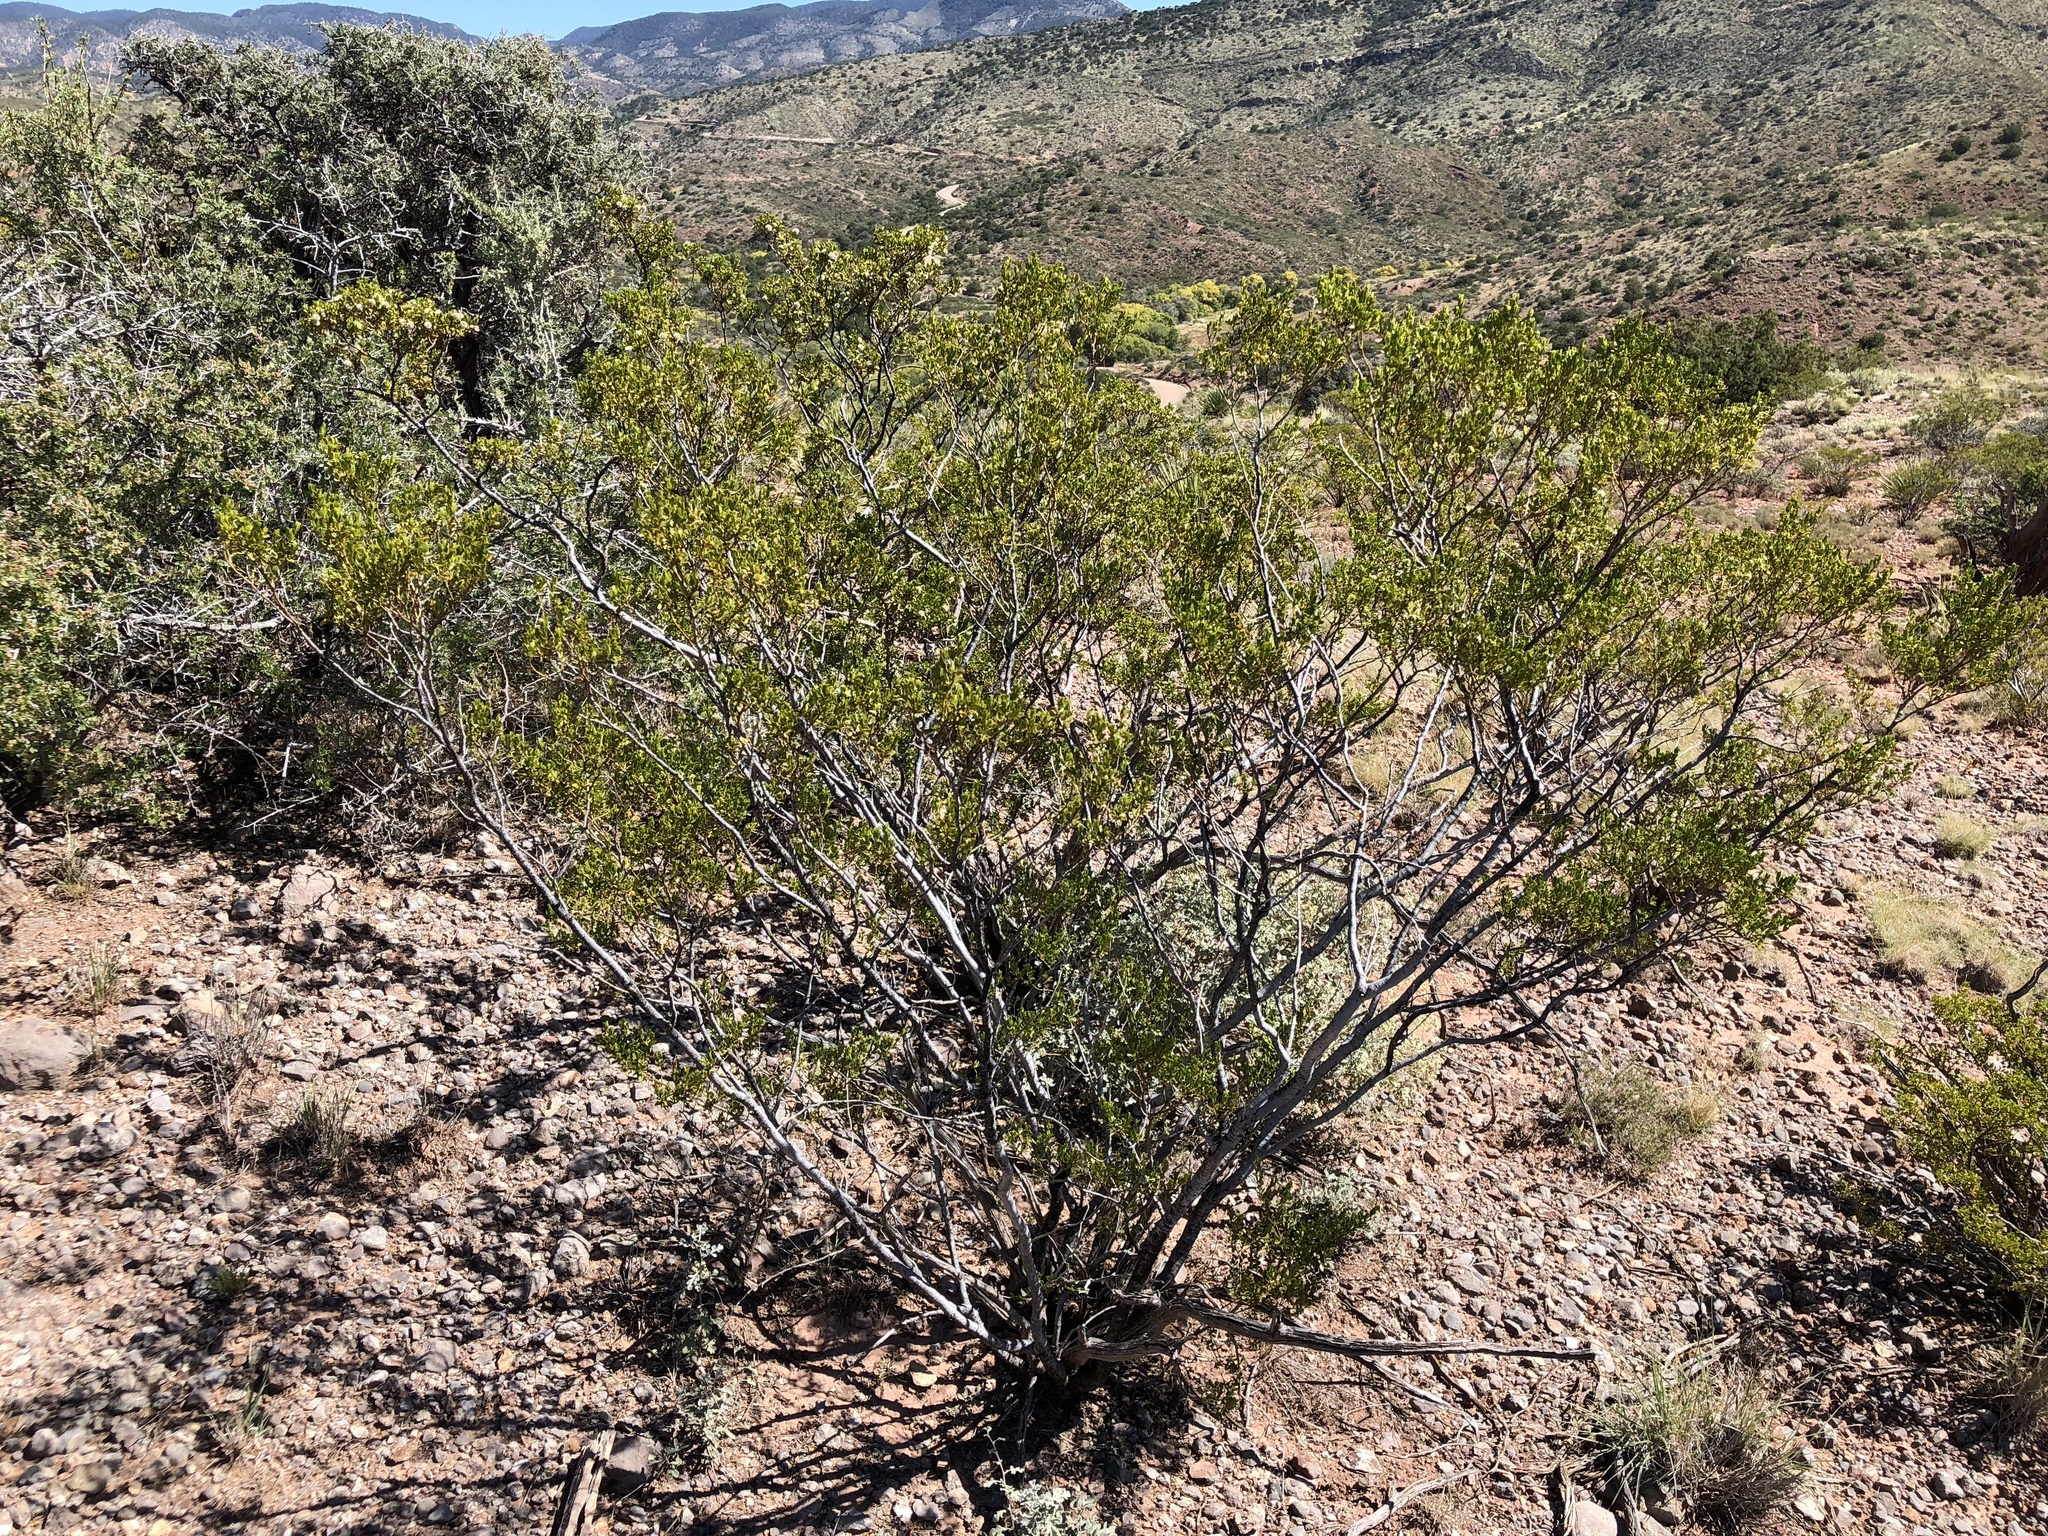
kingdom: Plantae
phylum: Tracheophyta
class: Magnoliopsida
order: Zygophyllales
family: Zygophyllaceae
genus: Larrea
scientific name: Larrea tridentata
